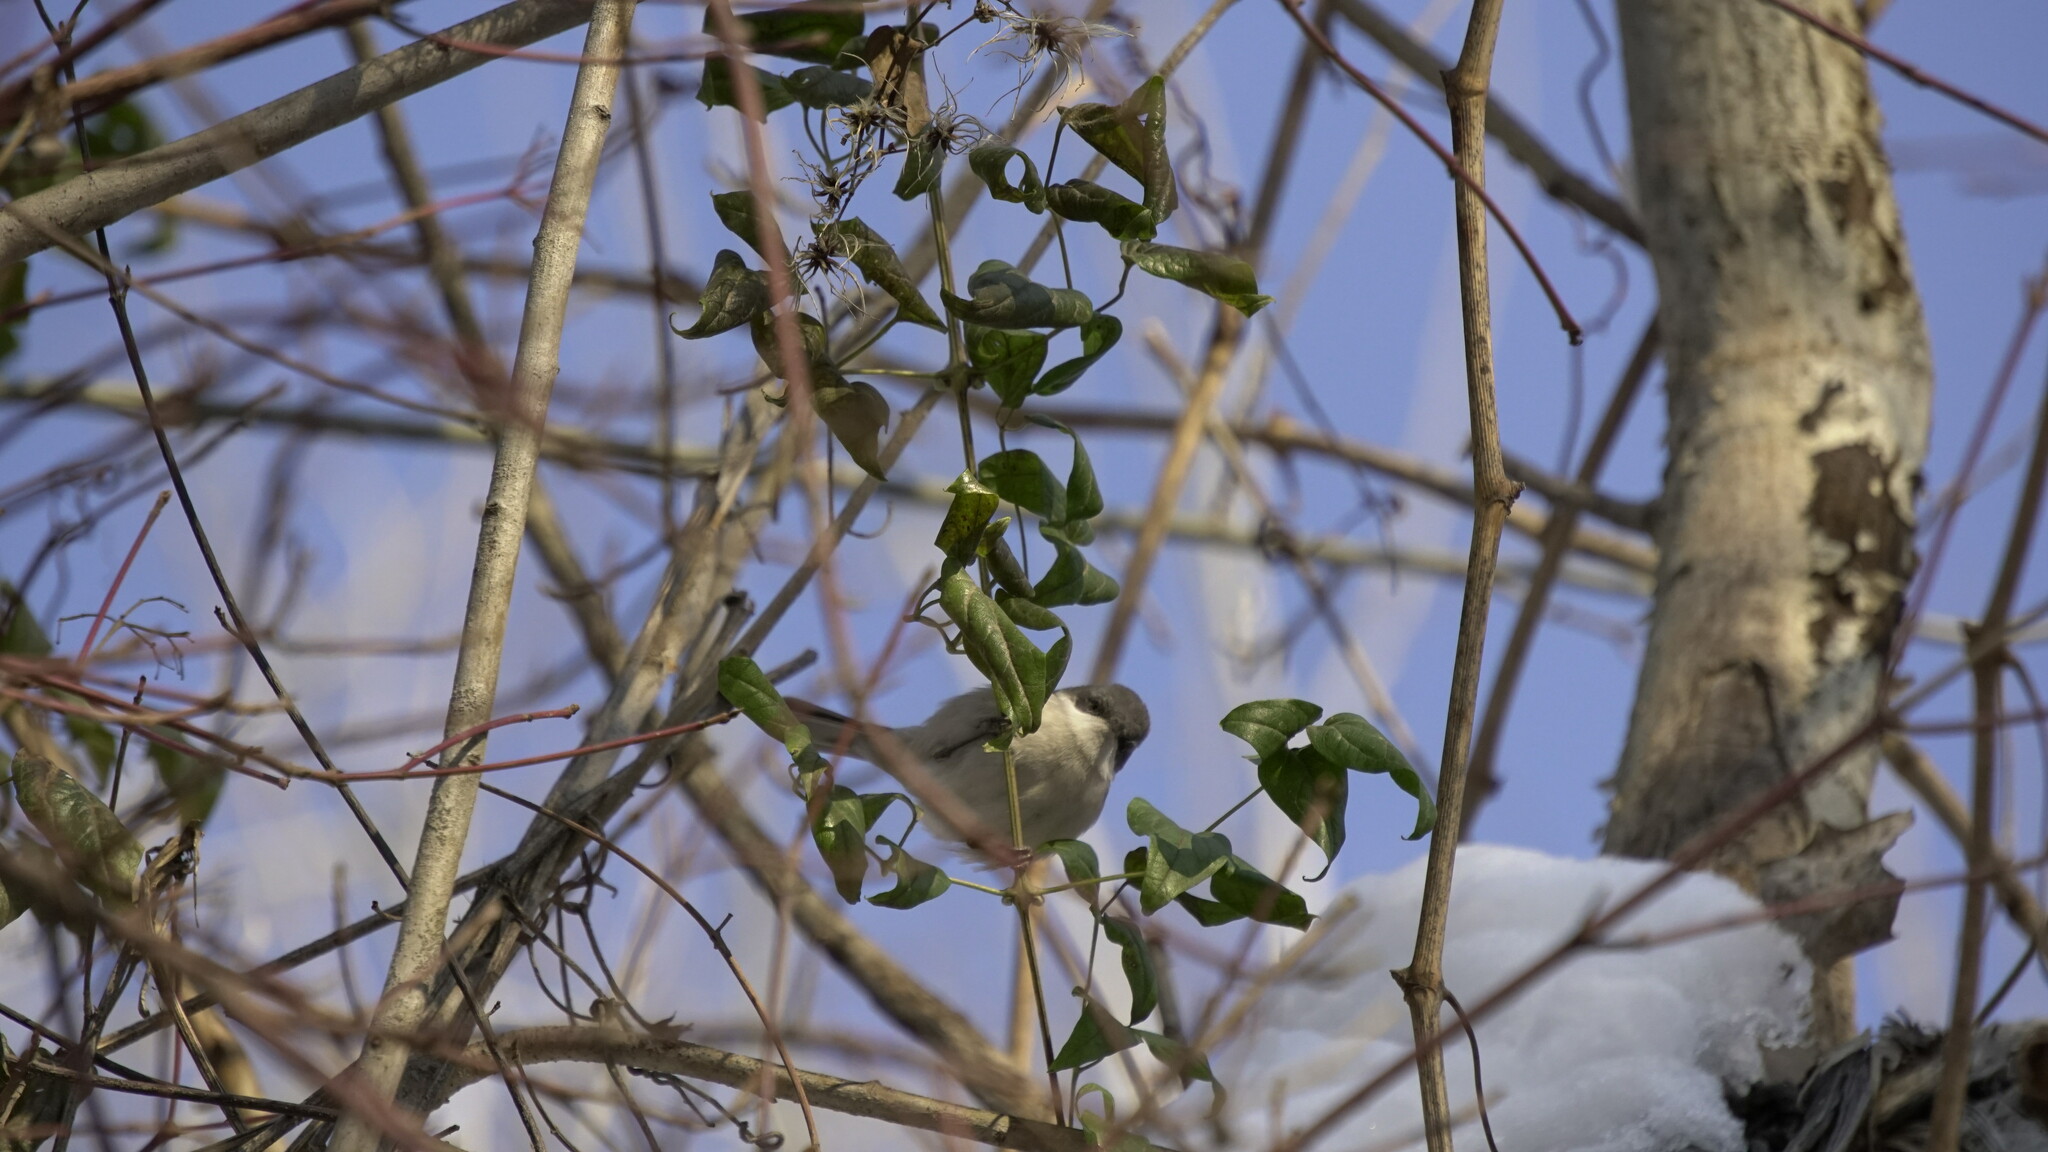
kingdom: Animalia
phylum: Chordata
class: Aves
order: Passeriformes
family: Sylviidae
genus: Sylvia
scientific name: Sylvia curruca
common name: Lesser whitethroat
